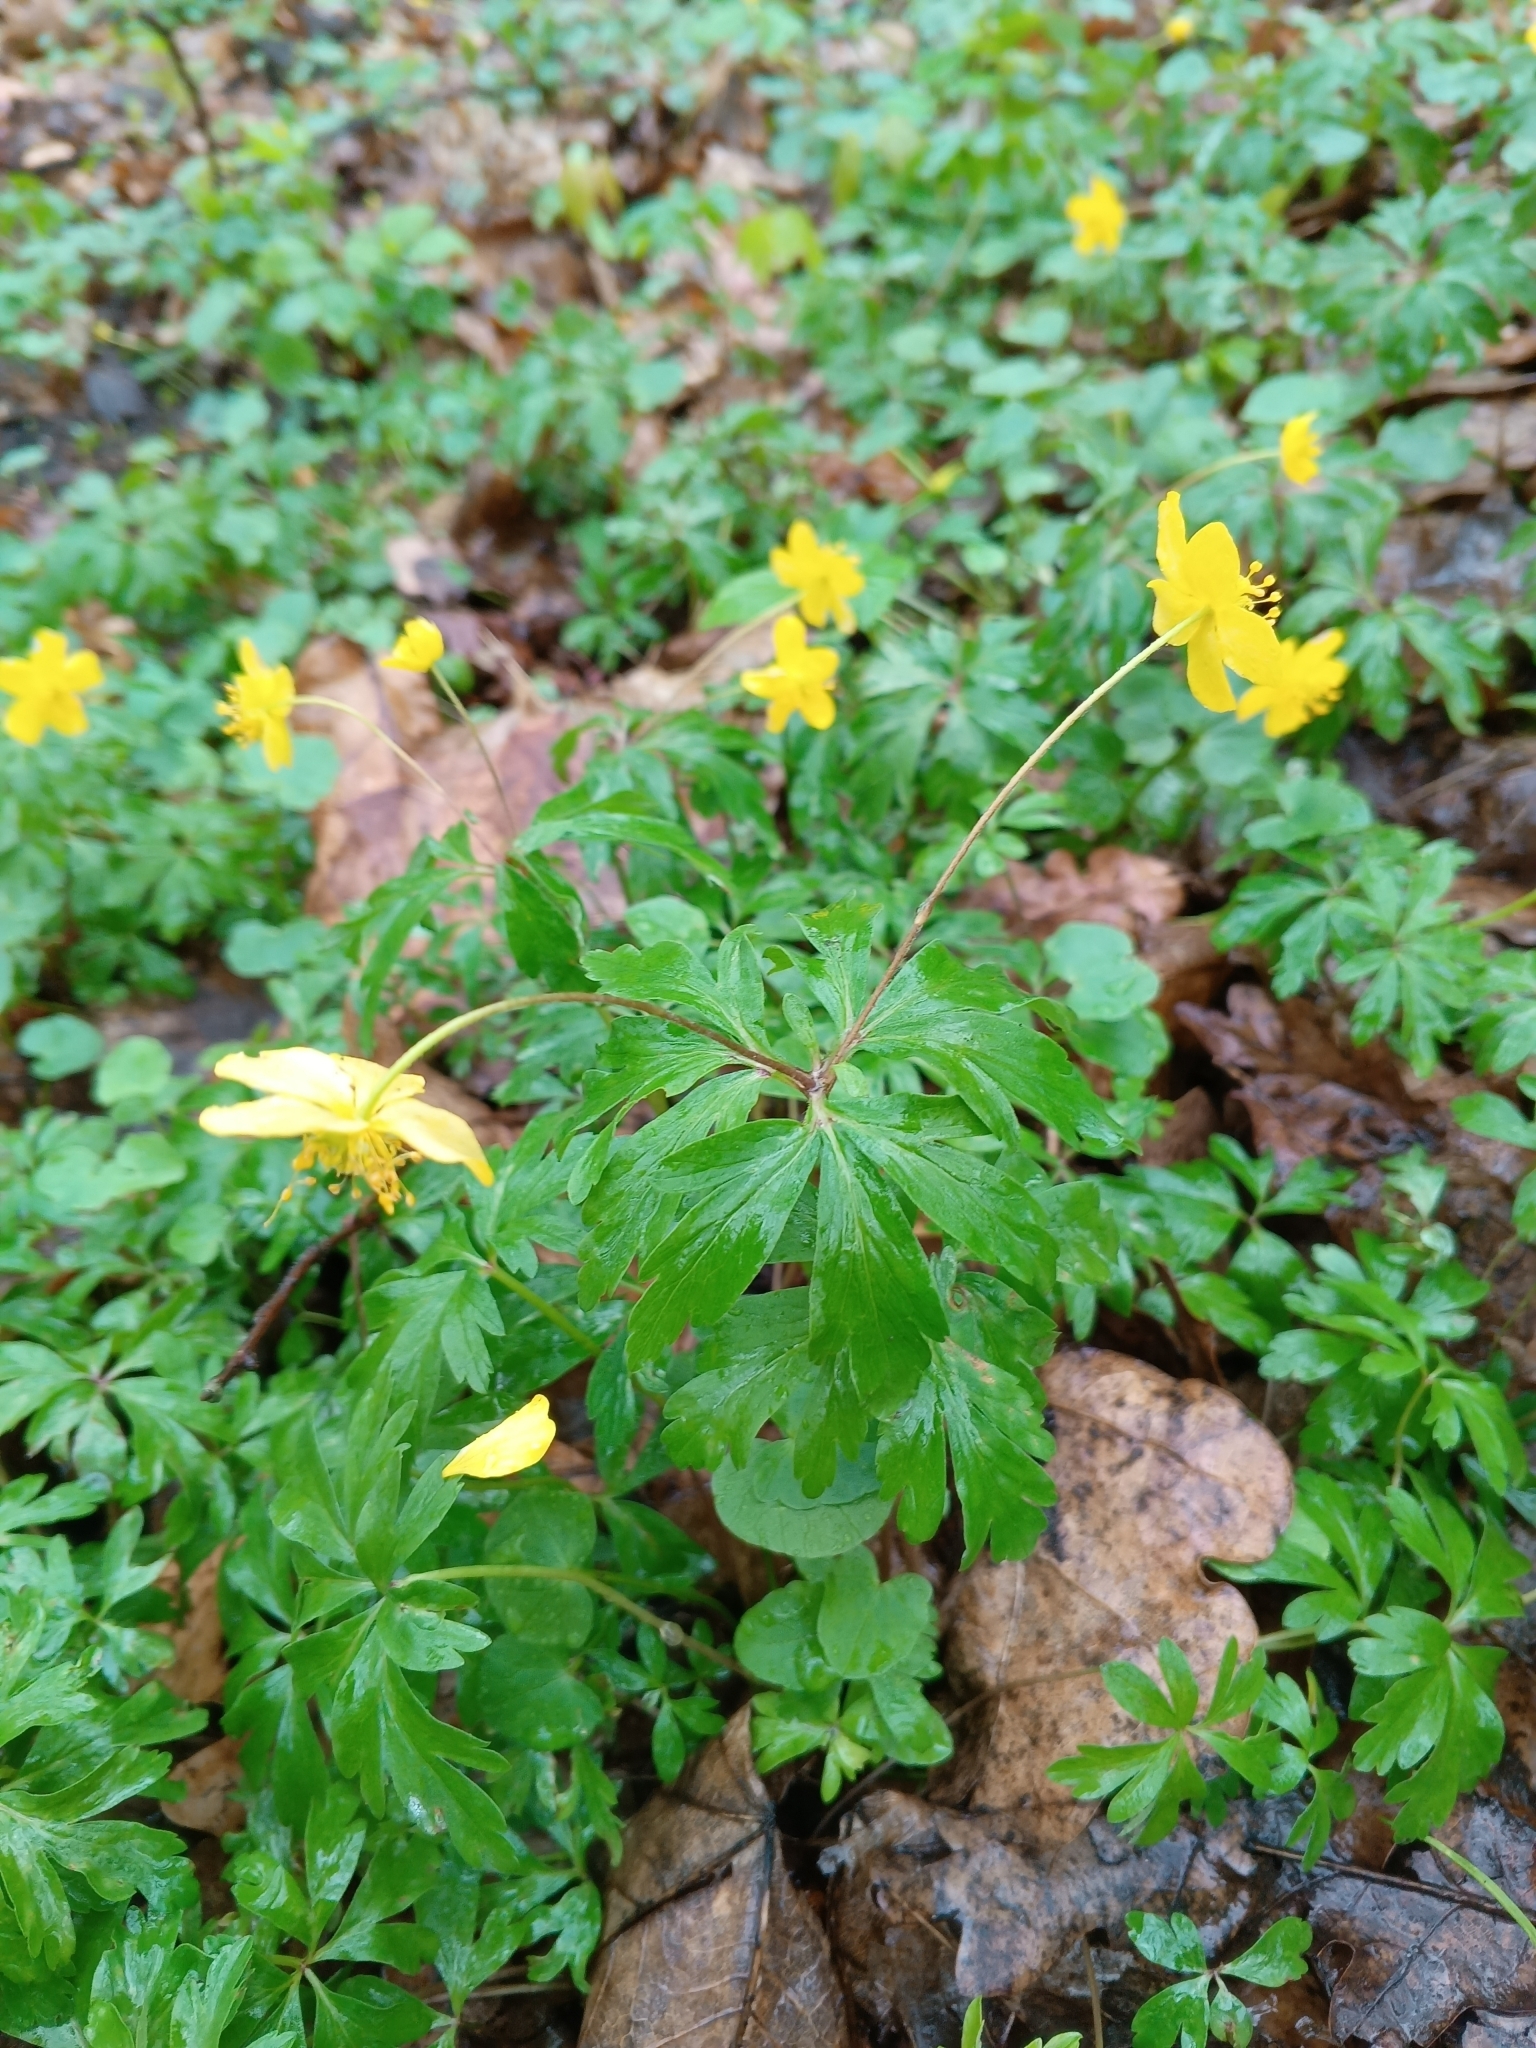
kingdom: Plantae
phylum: Tracheophyta
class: Magnoliopsida
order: Ranunculales
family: Ranunculaceae
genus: Anemone
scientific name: Anemone ranunculoides
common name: Yellow anemone
